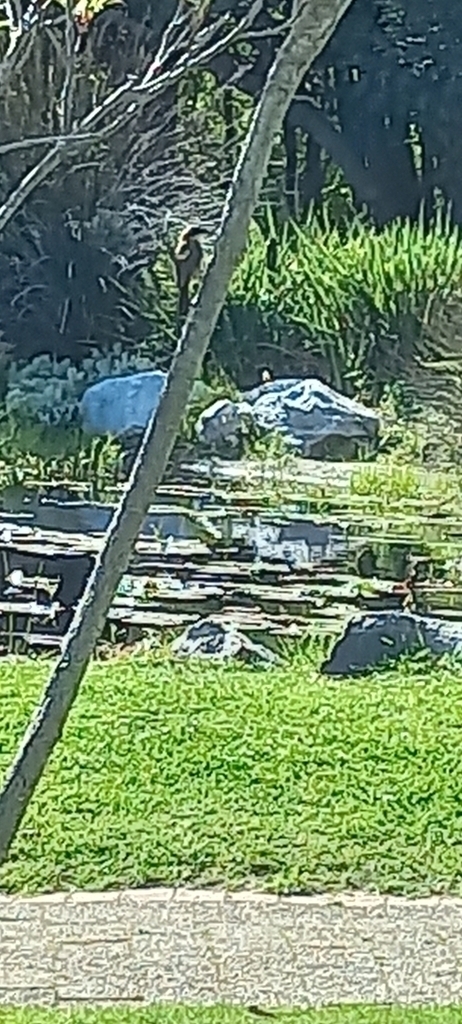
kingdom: Animalia
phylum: Chordata
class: Aves
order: Passeriformes
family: Laniidae
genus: Lanius
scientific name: Lanius collaris
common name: Southern fiscal
